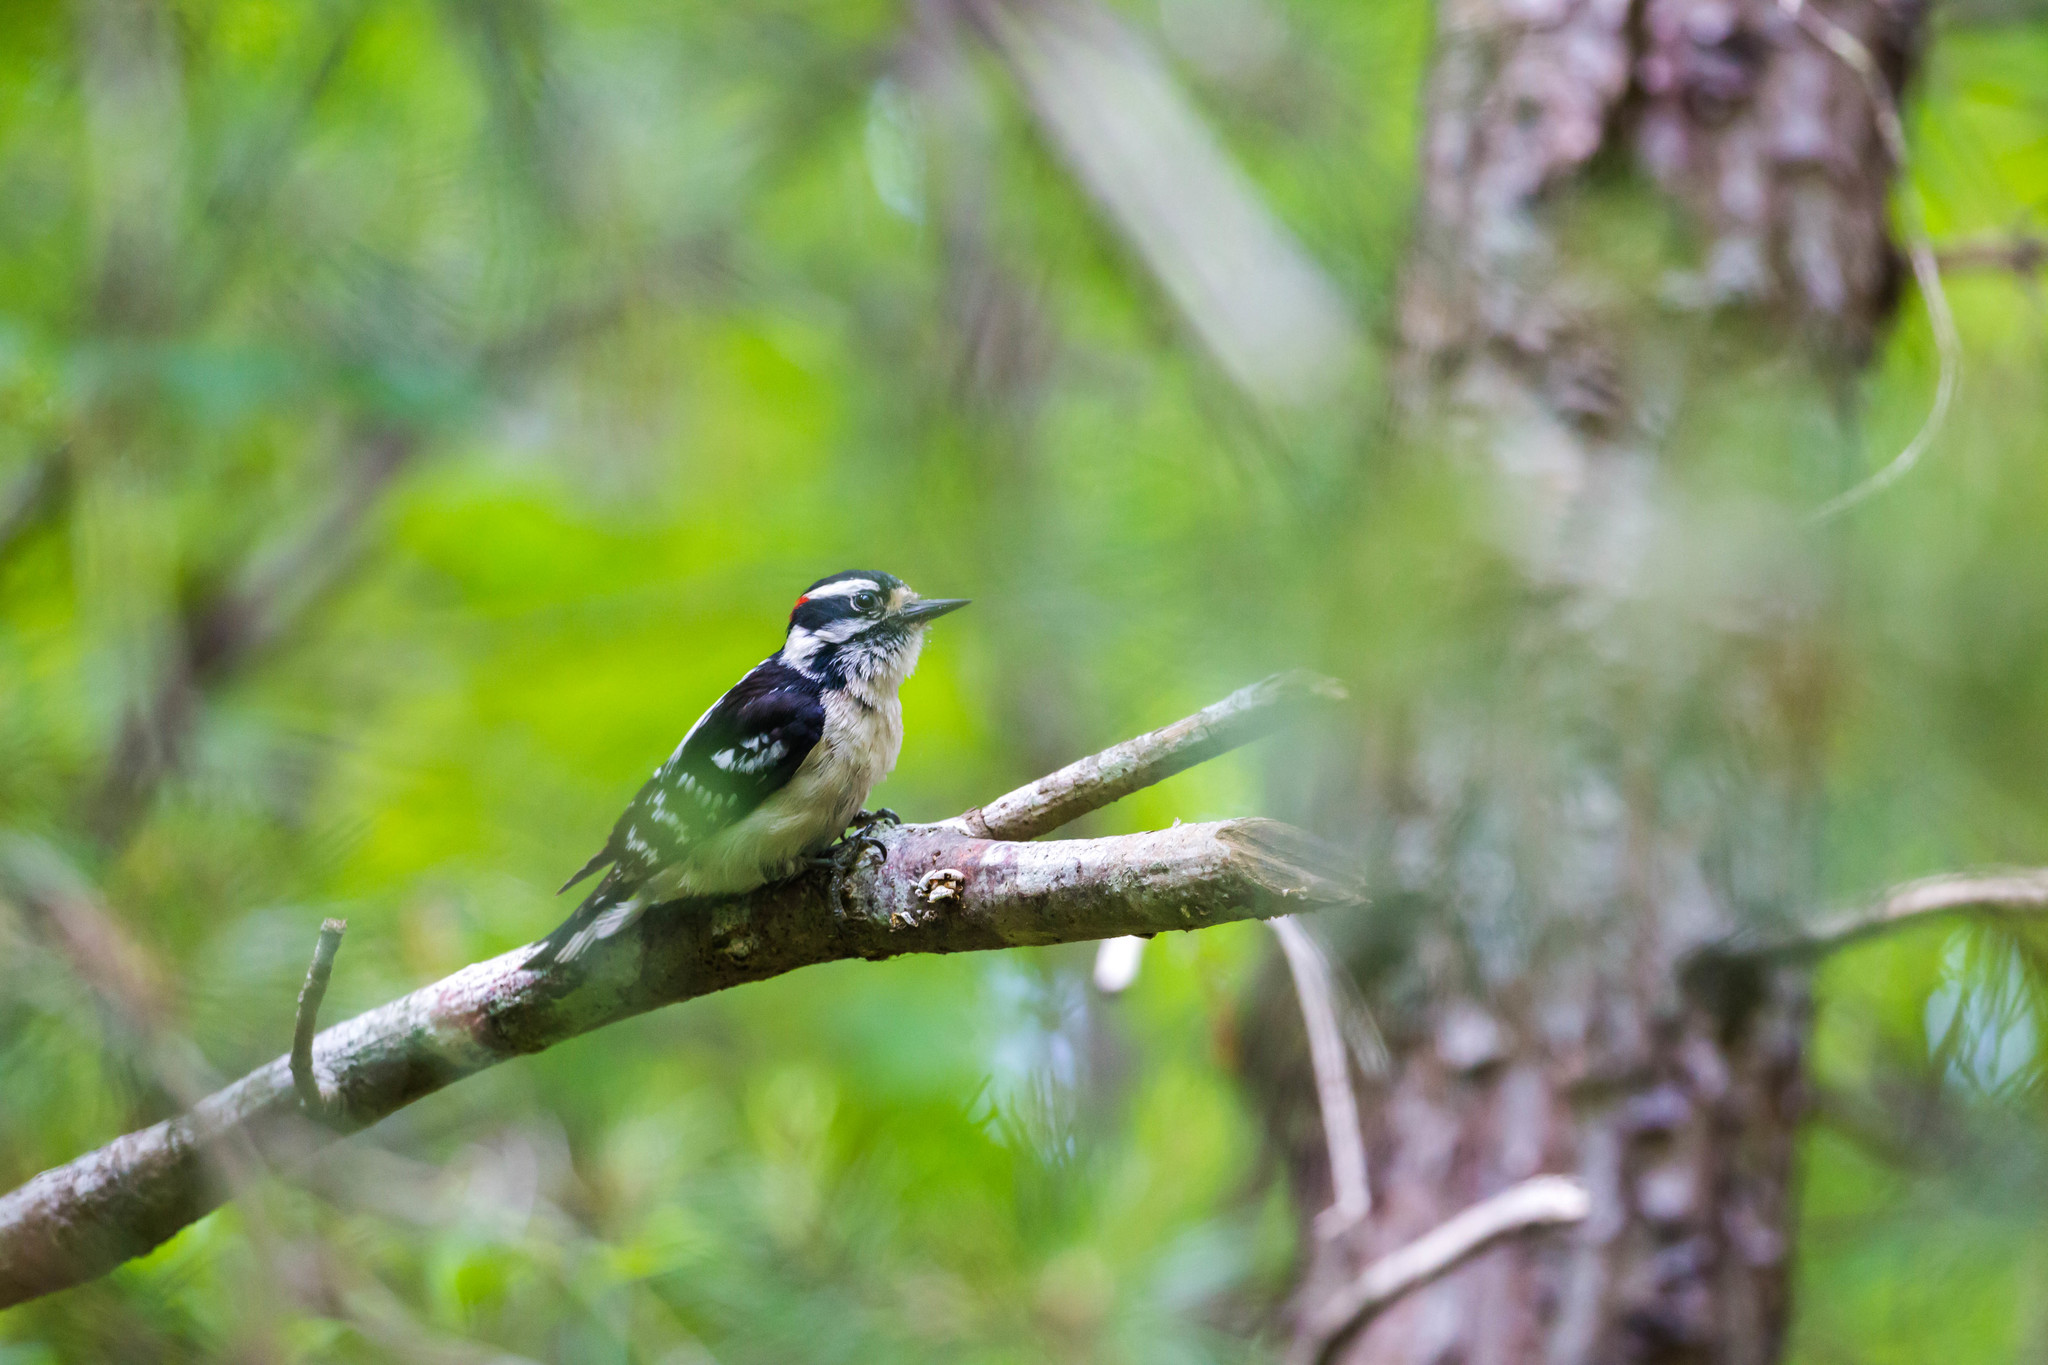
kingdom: Animalia
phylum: Chordata
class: Aves
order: Piciformes
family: Picidae
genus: Dryobates
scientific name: Dryobates pubescens
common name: Downy woodpecker
